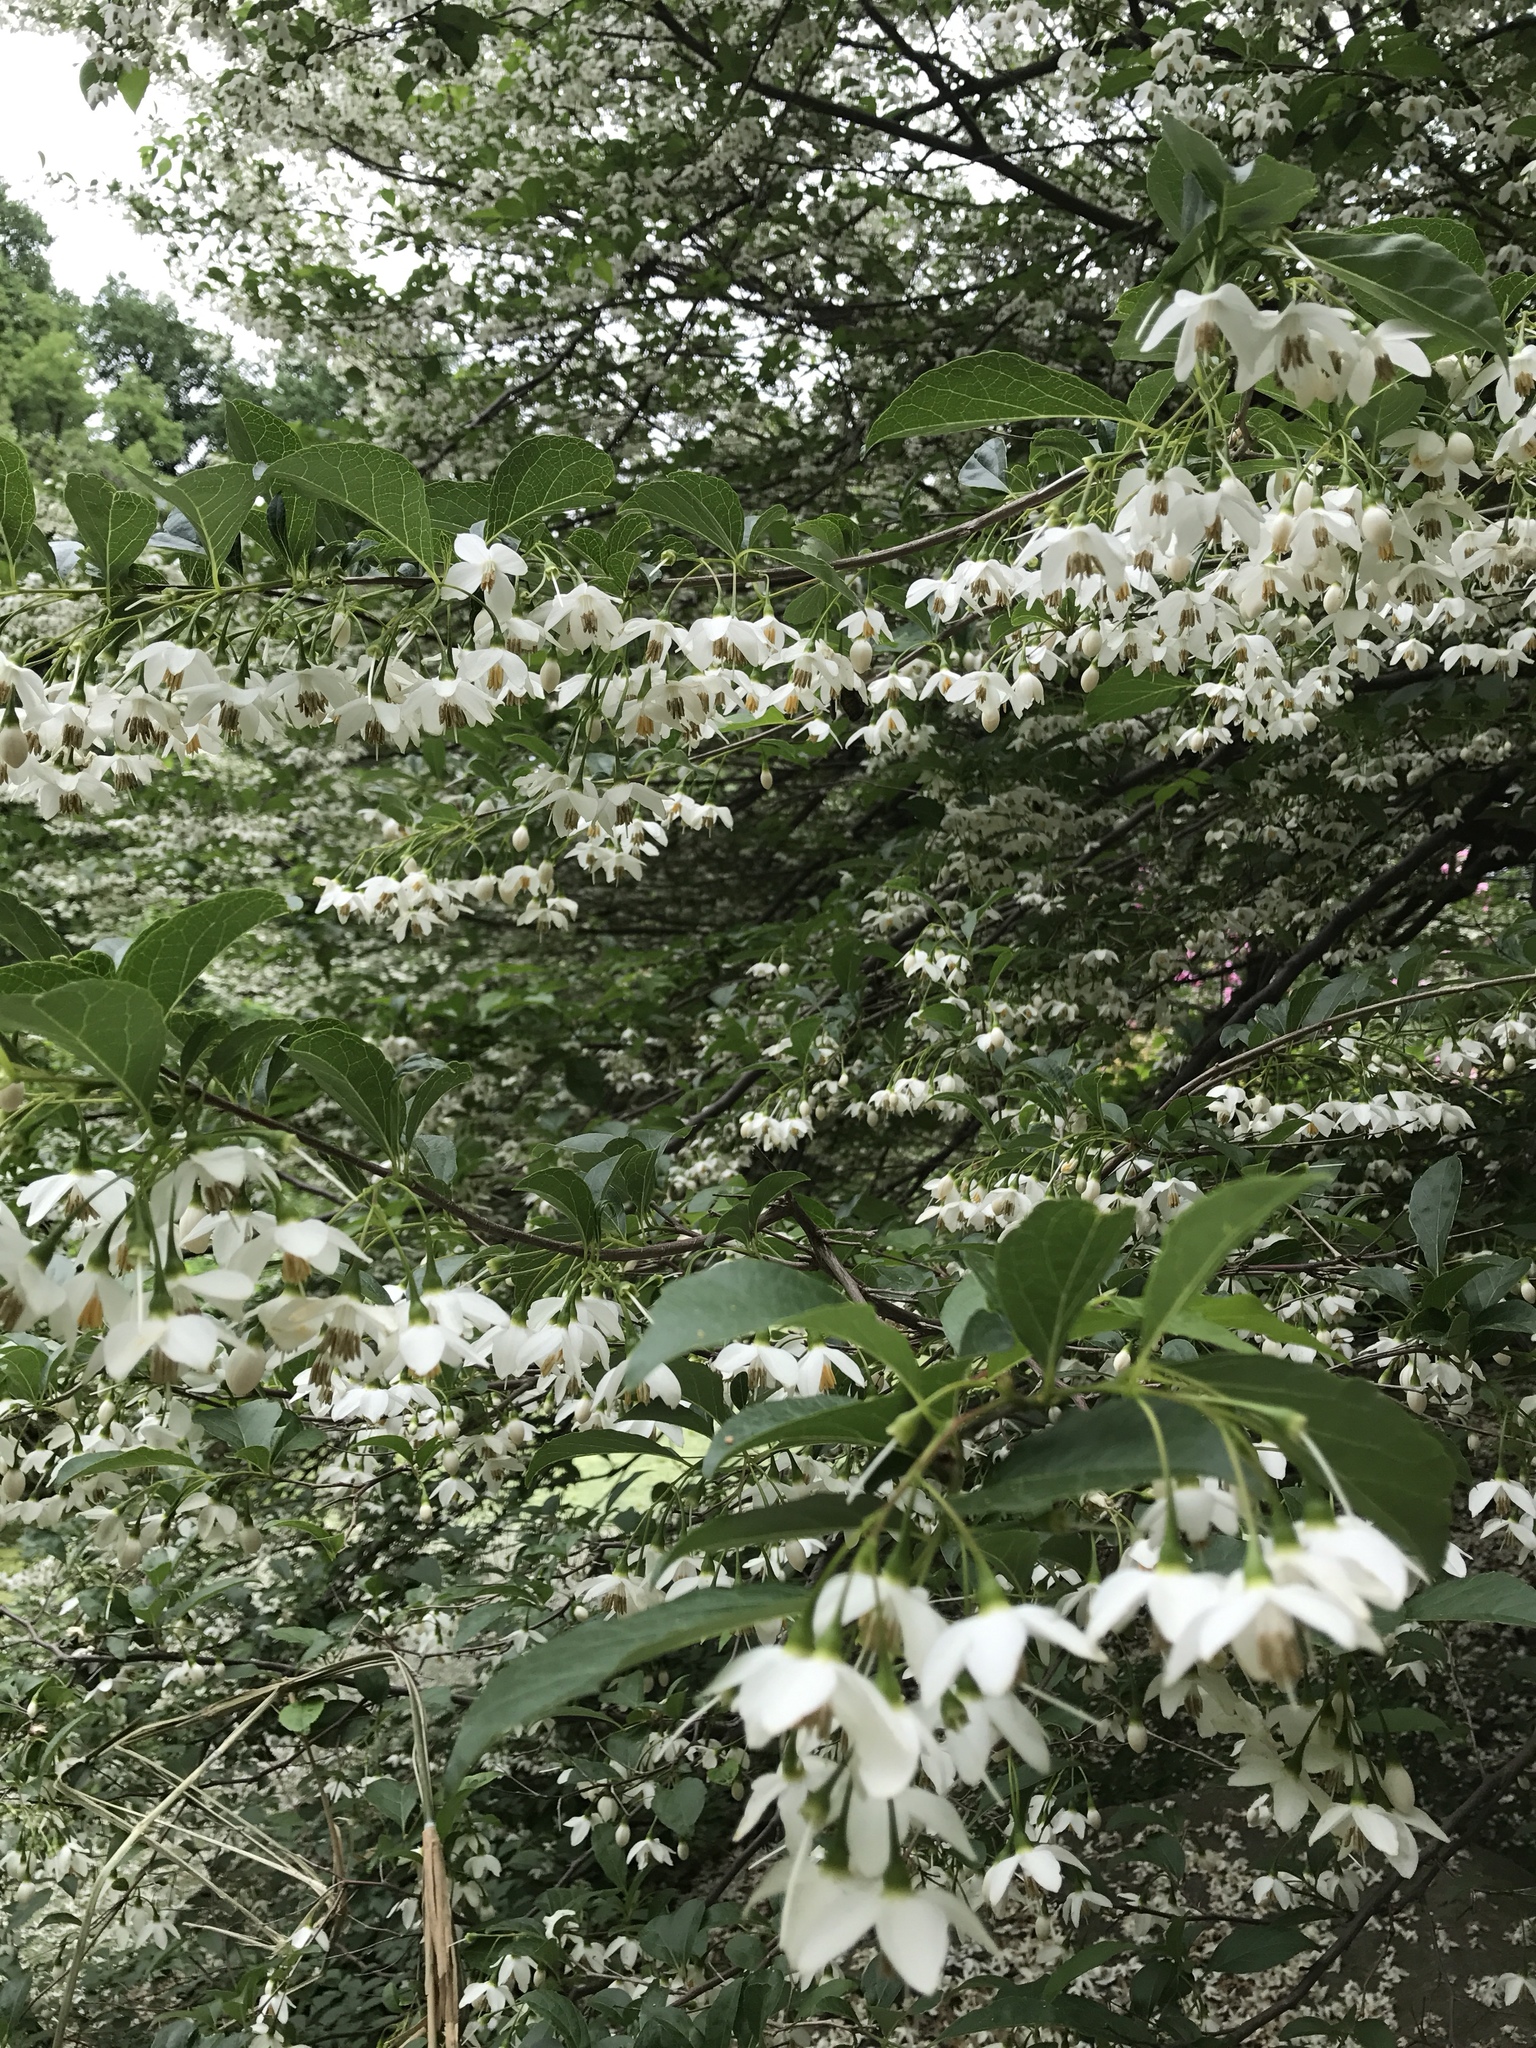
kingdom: Plantae
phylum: Tracheophyta
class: Magnoliopsida
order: Ericales
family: Styracaceae
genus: Styrax
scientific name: Styrax japonicus
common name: Japanese snowbell
